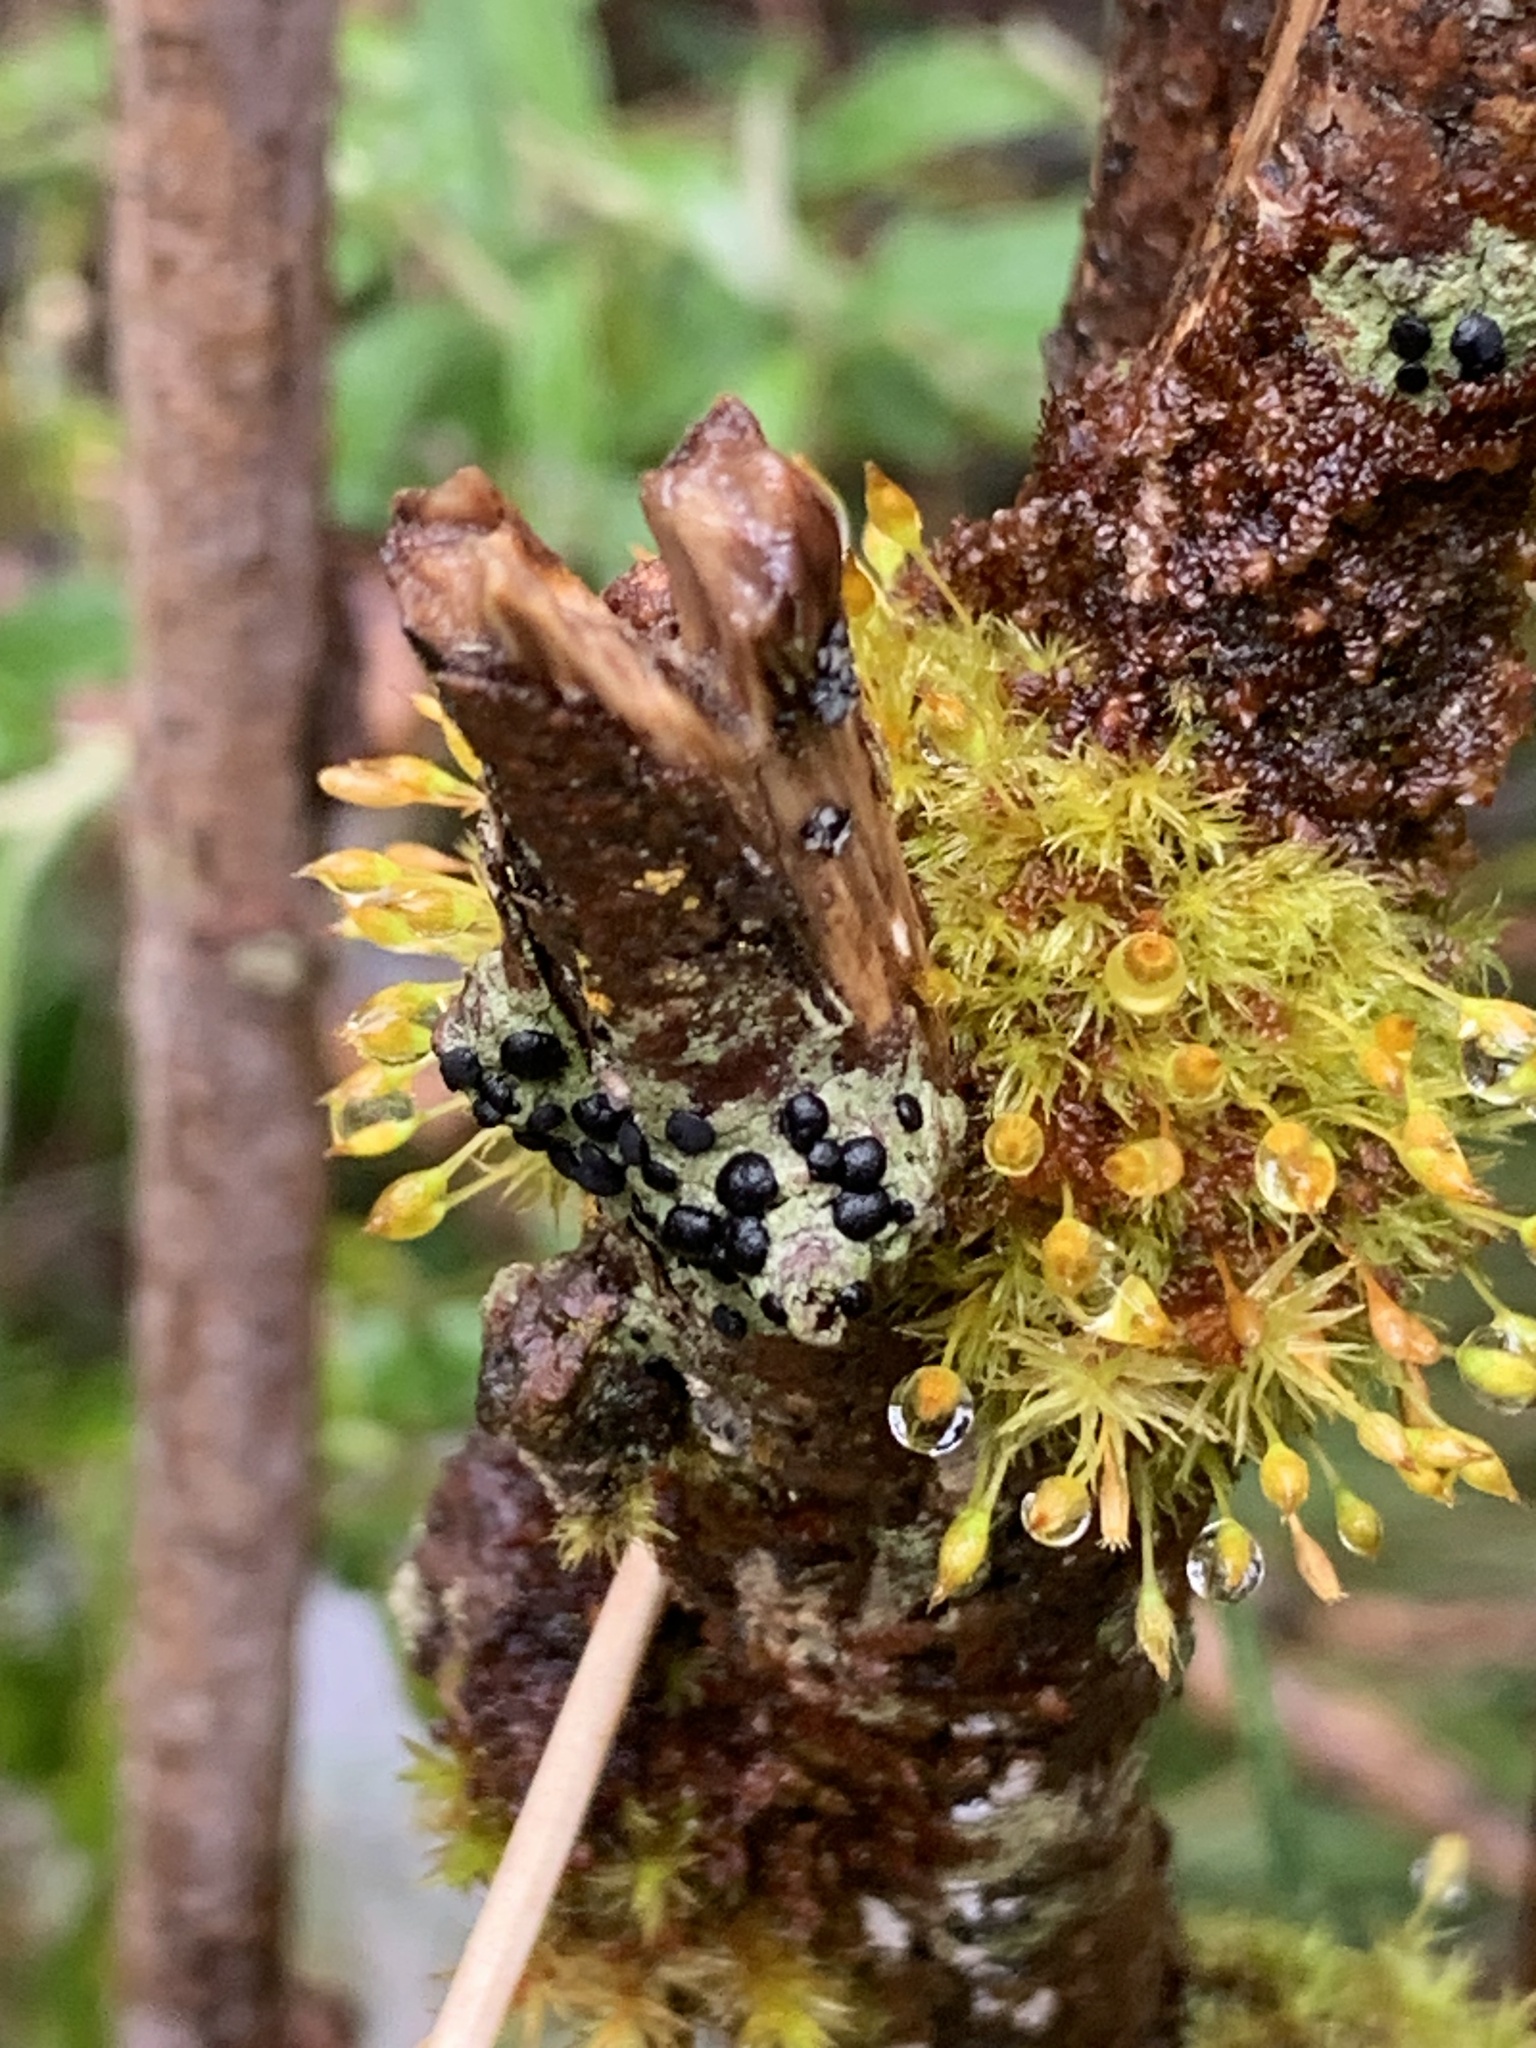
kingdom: Plantae
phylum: Bryophyta
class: Bryopsida
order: Orthotrichales
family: Orthotrichaceae
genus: Lewinskya
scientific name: Lewinskya tasmanica
